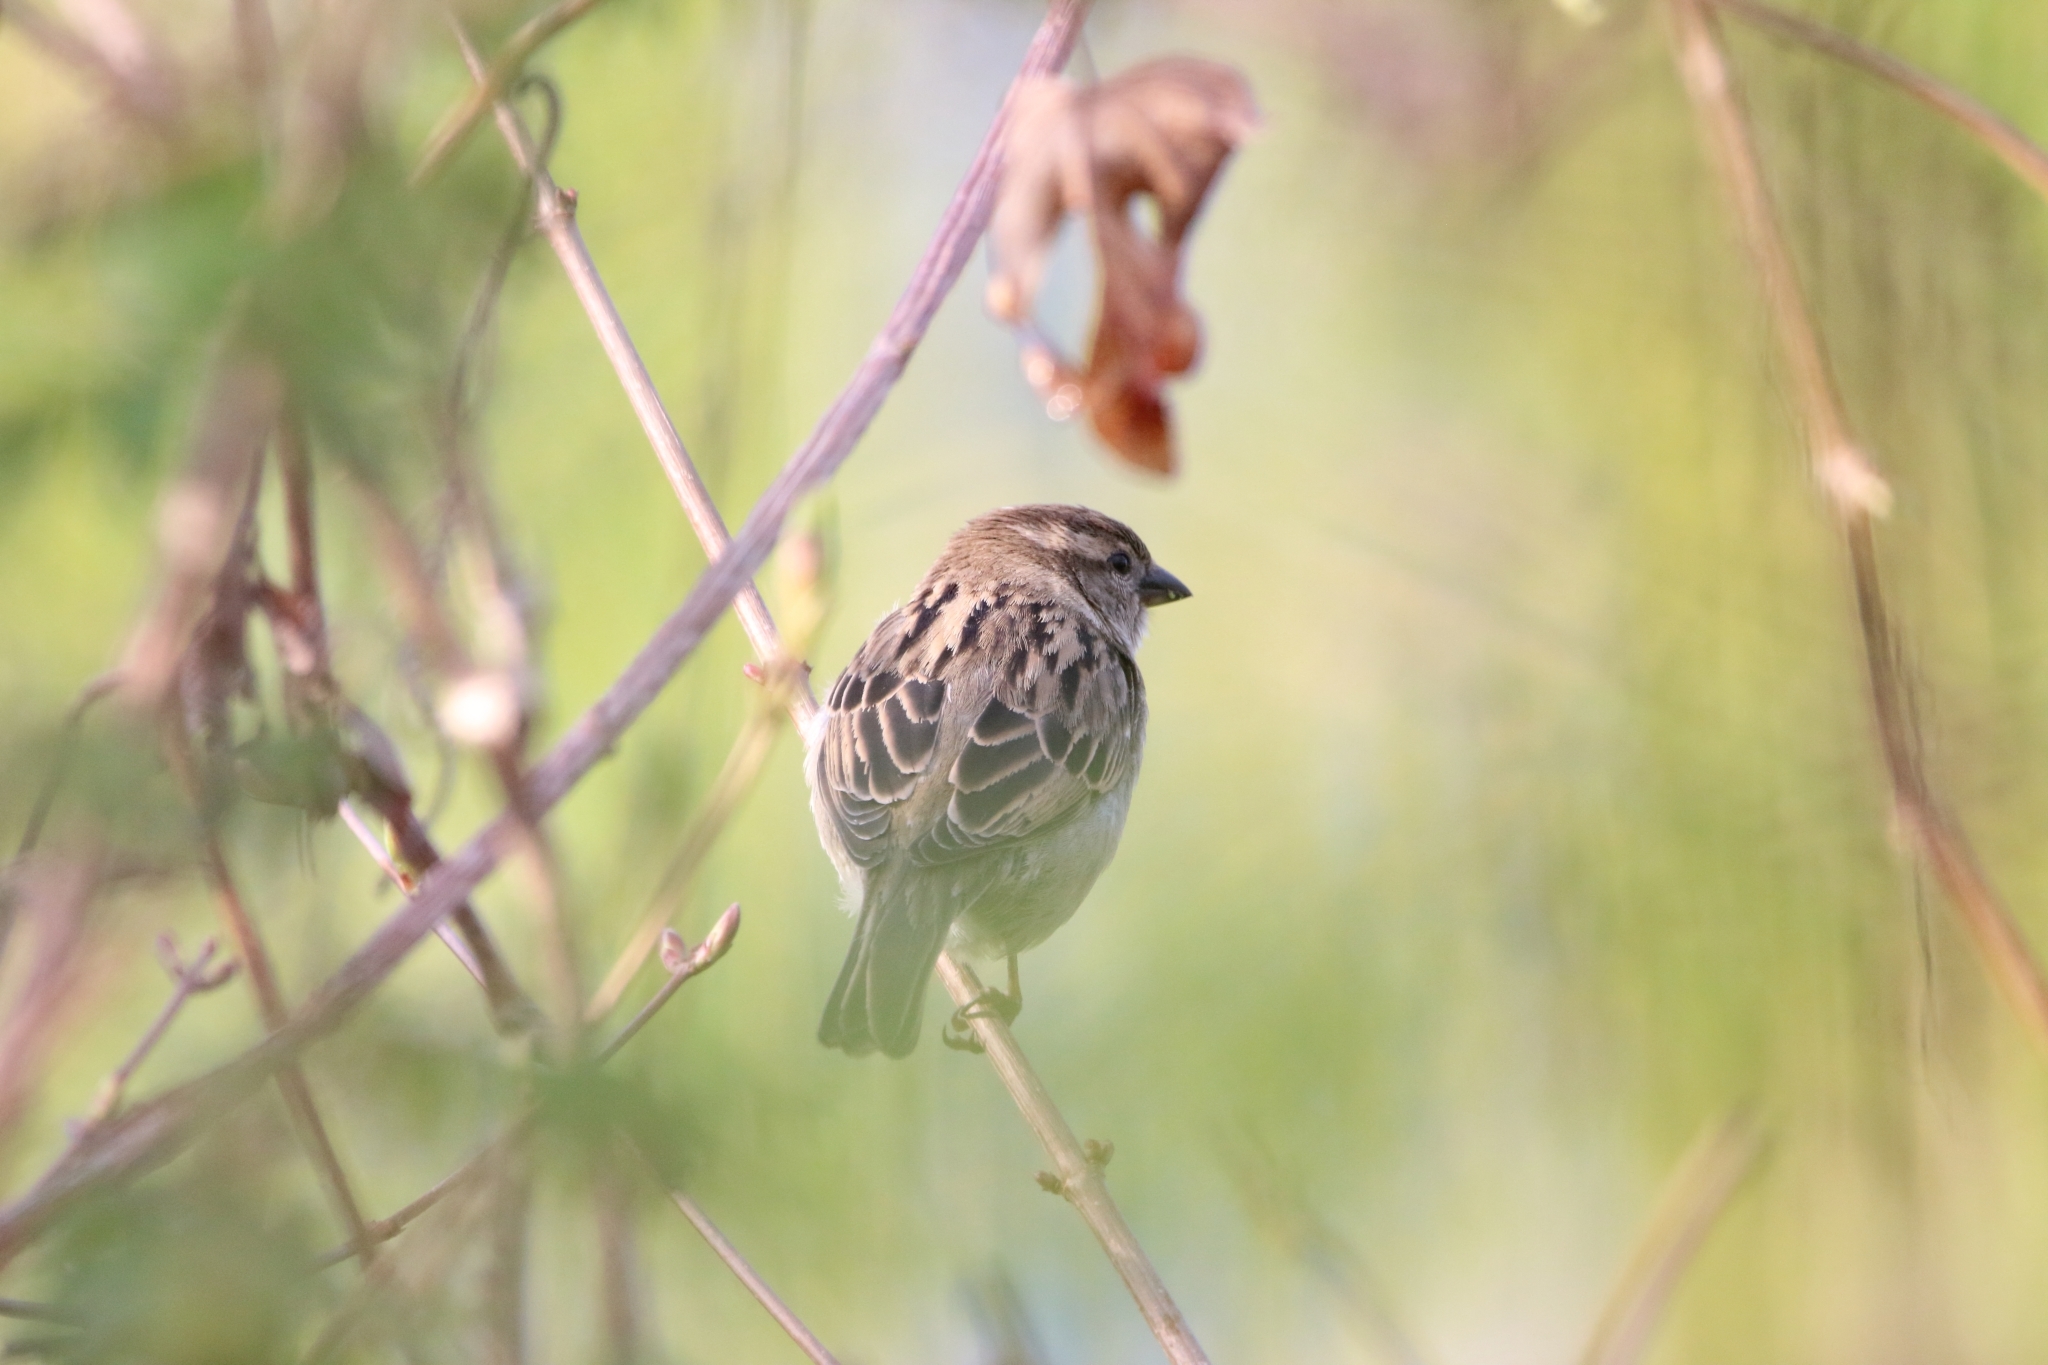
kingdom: Animalia
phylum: Chordata
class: Aves
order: Passeriformes
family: Passeridae
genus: Passer
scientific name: Passer domesticus
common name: House sparrow
